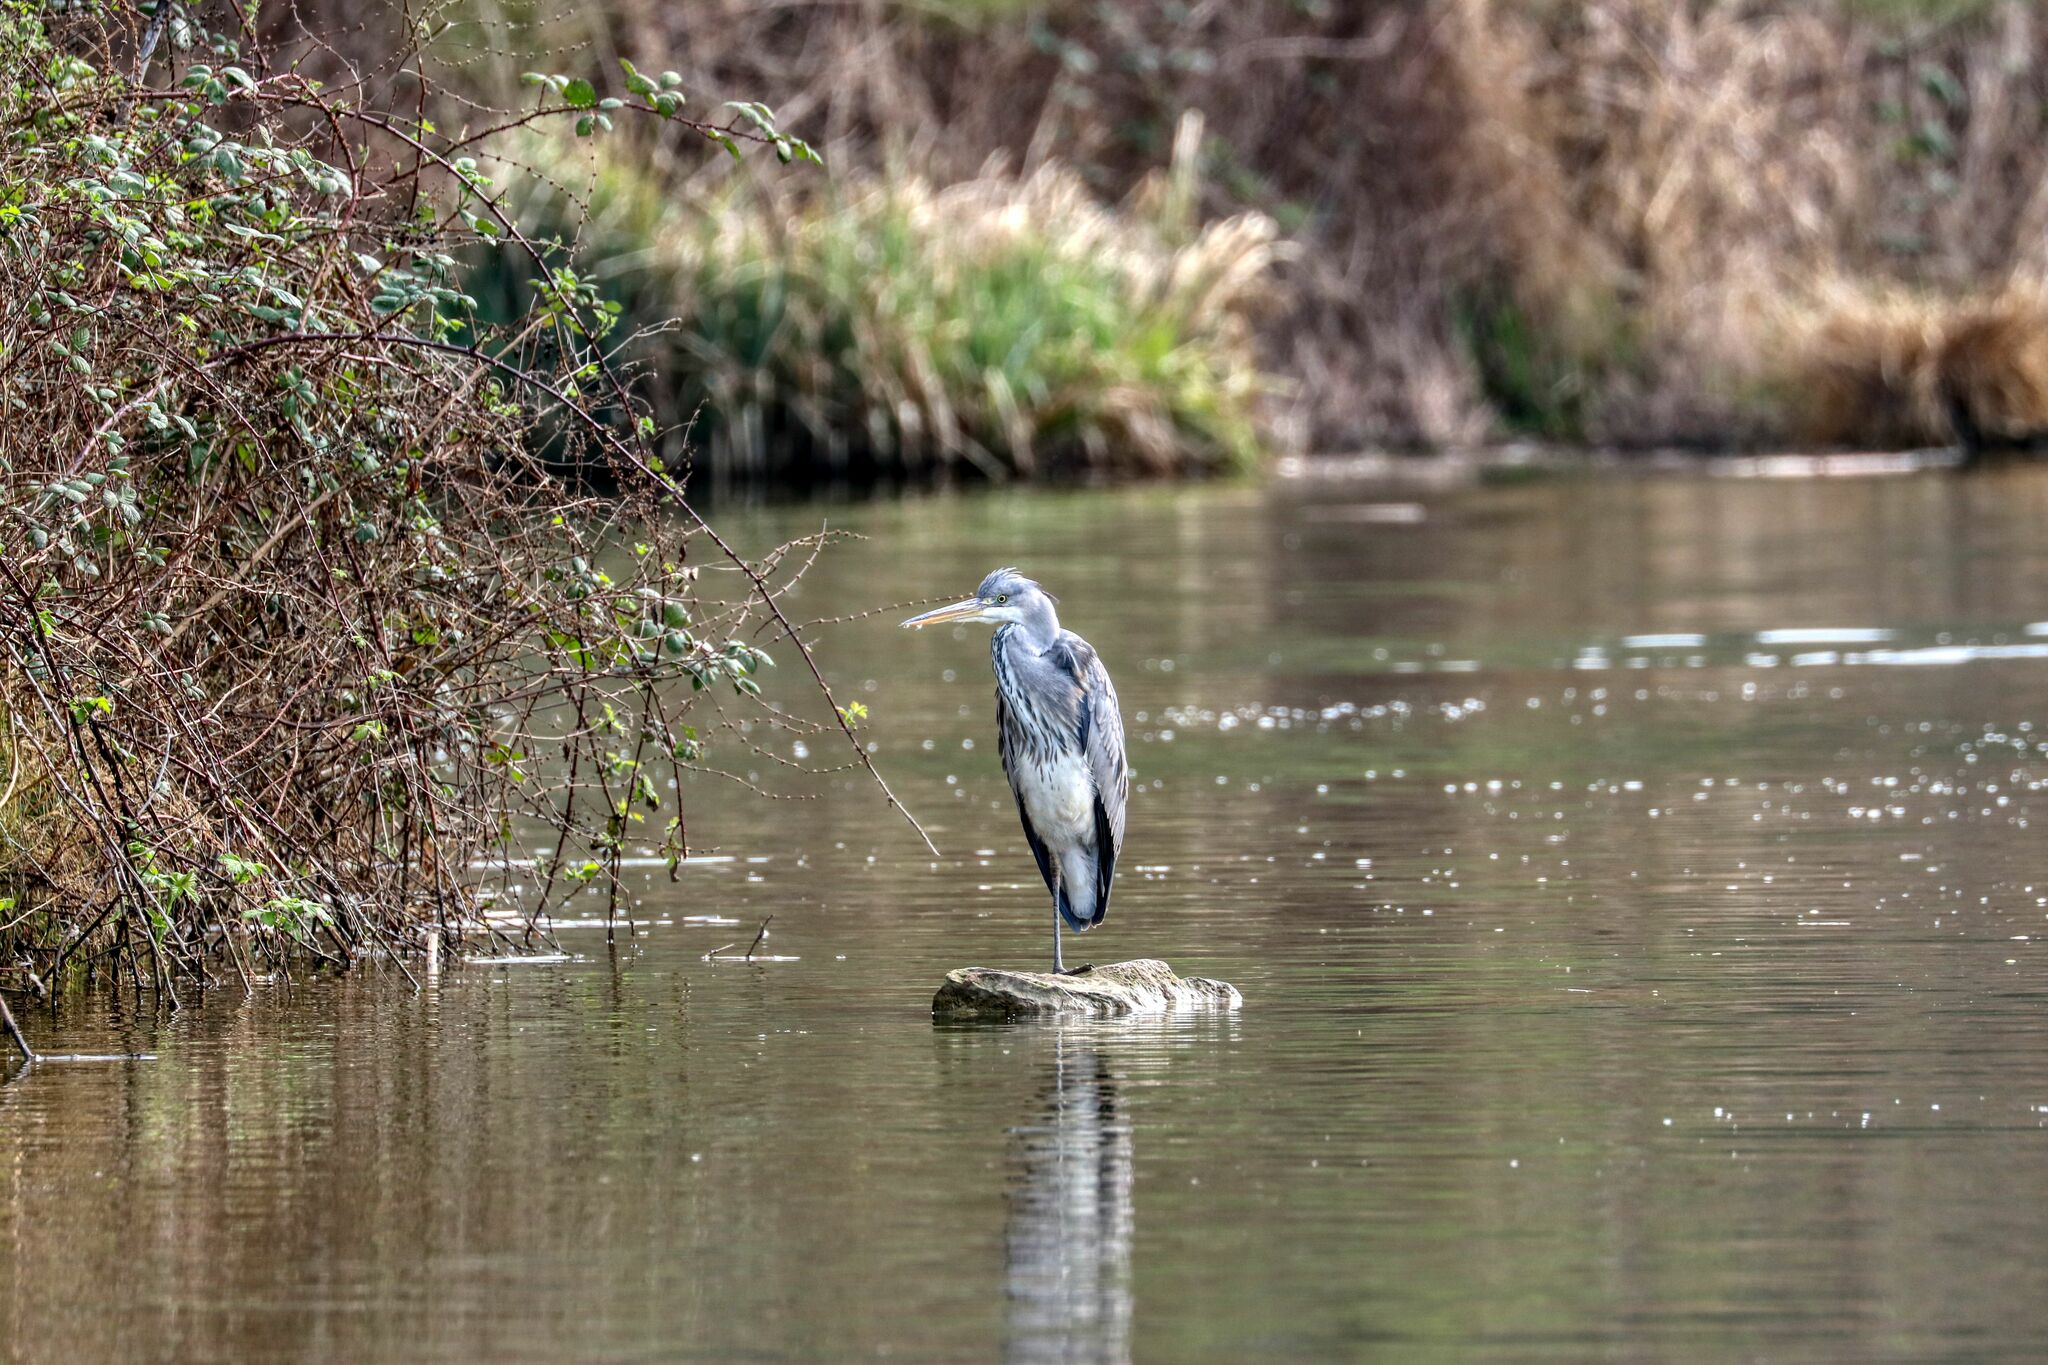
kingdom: Animalia
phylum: Chordata
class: Aves
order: Pelecaniformes
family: Ardeidae
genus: Ardea
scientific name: Ardea cinerea
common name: Grey heron
